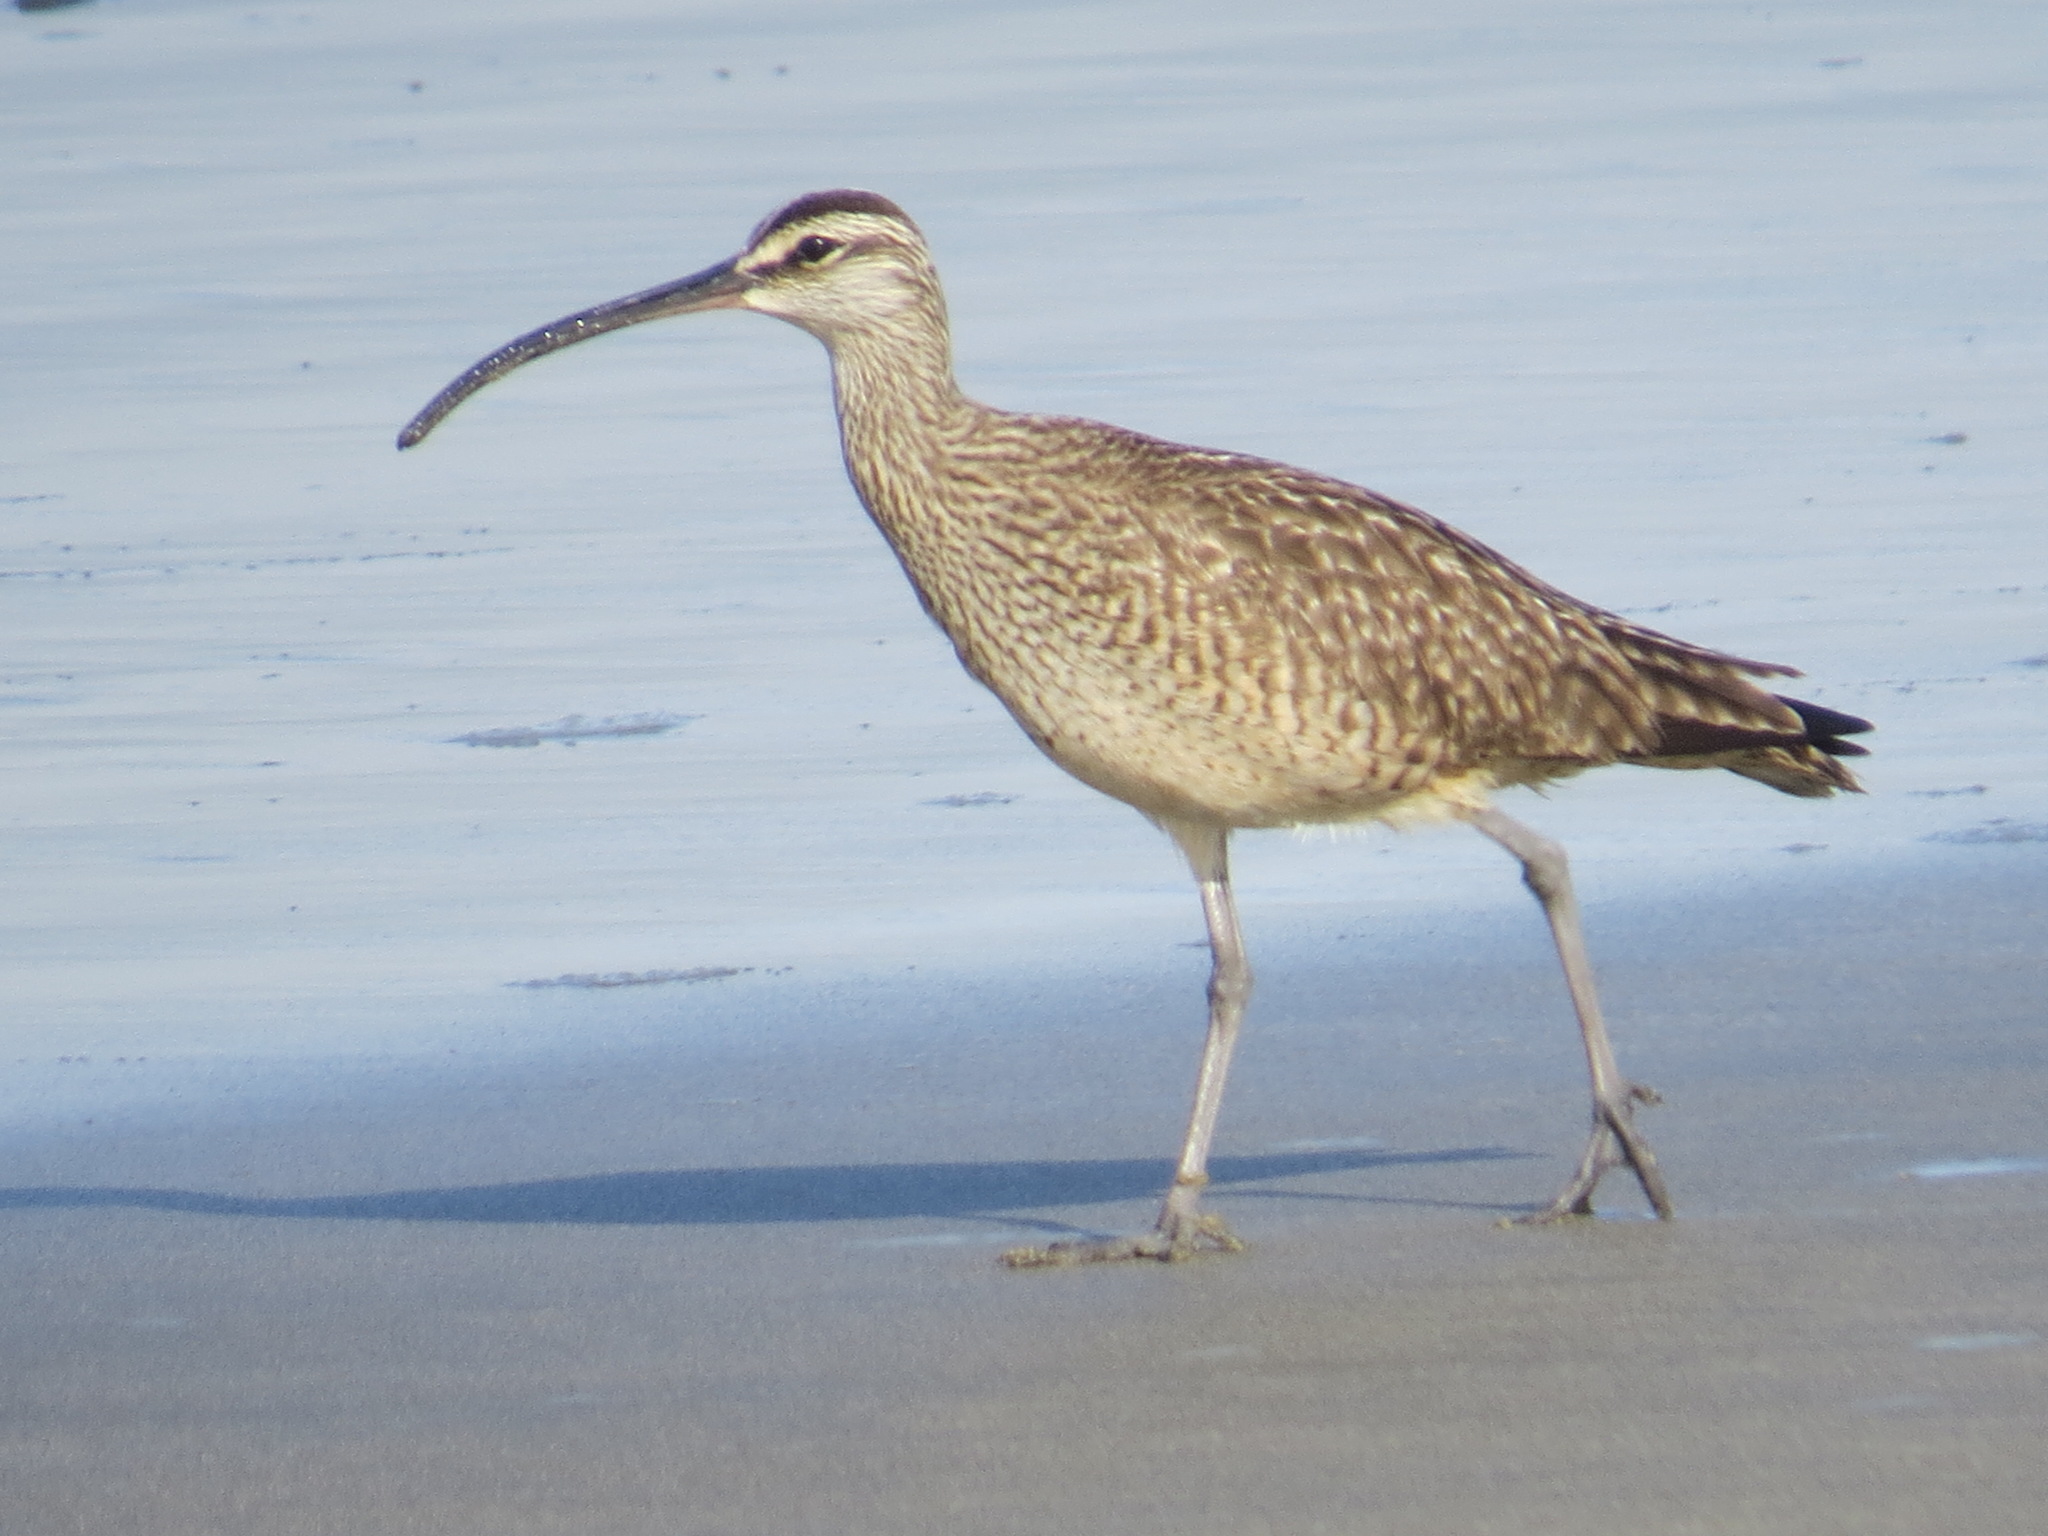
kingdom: Animalia
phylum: Chordata
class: Aves
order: Charadriiformes
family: Scolopacidae
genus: Numenius
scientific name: Numenius phaeopus
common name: Whimbrel
